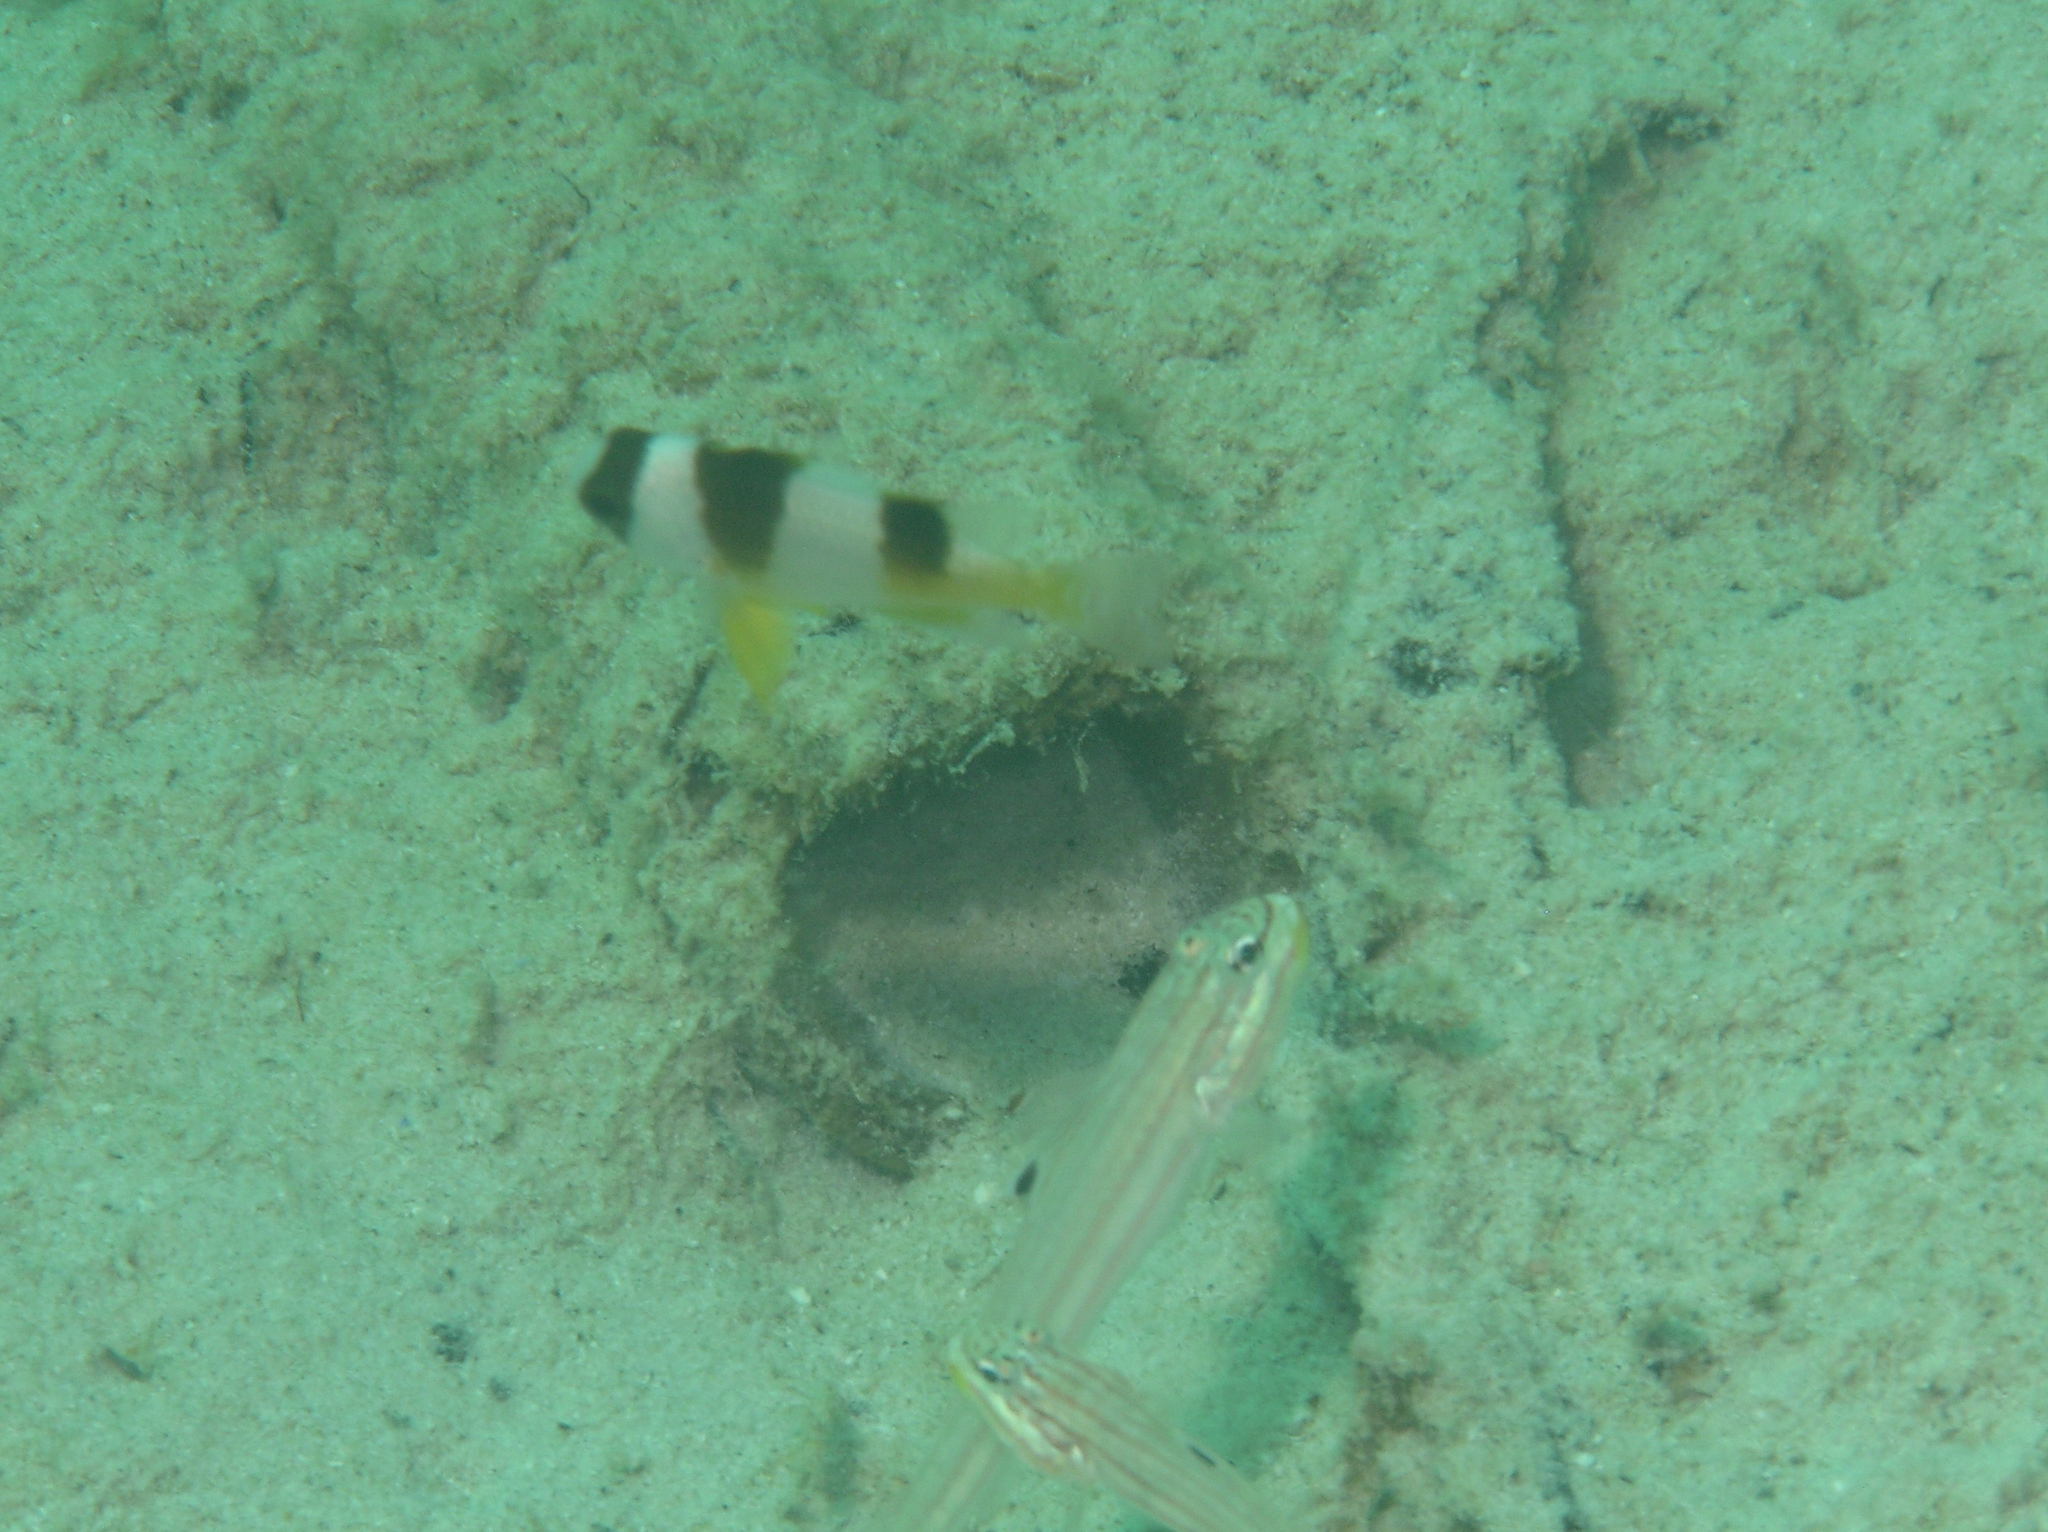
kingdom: Animalia
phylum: Chordata
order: Perciformes
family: Gobiidae
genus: Valenciennea
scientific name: Valenciennea muralis
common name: Mural goby
